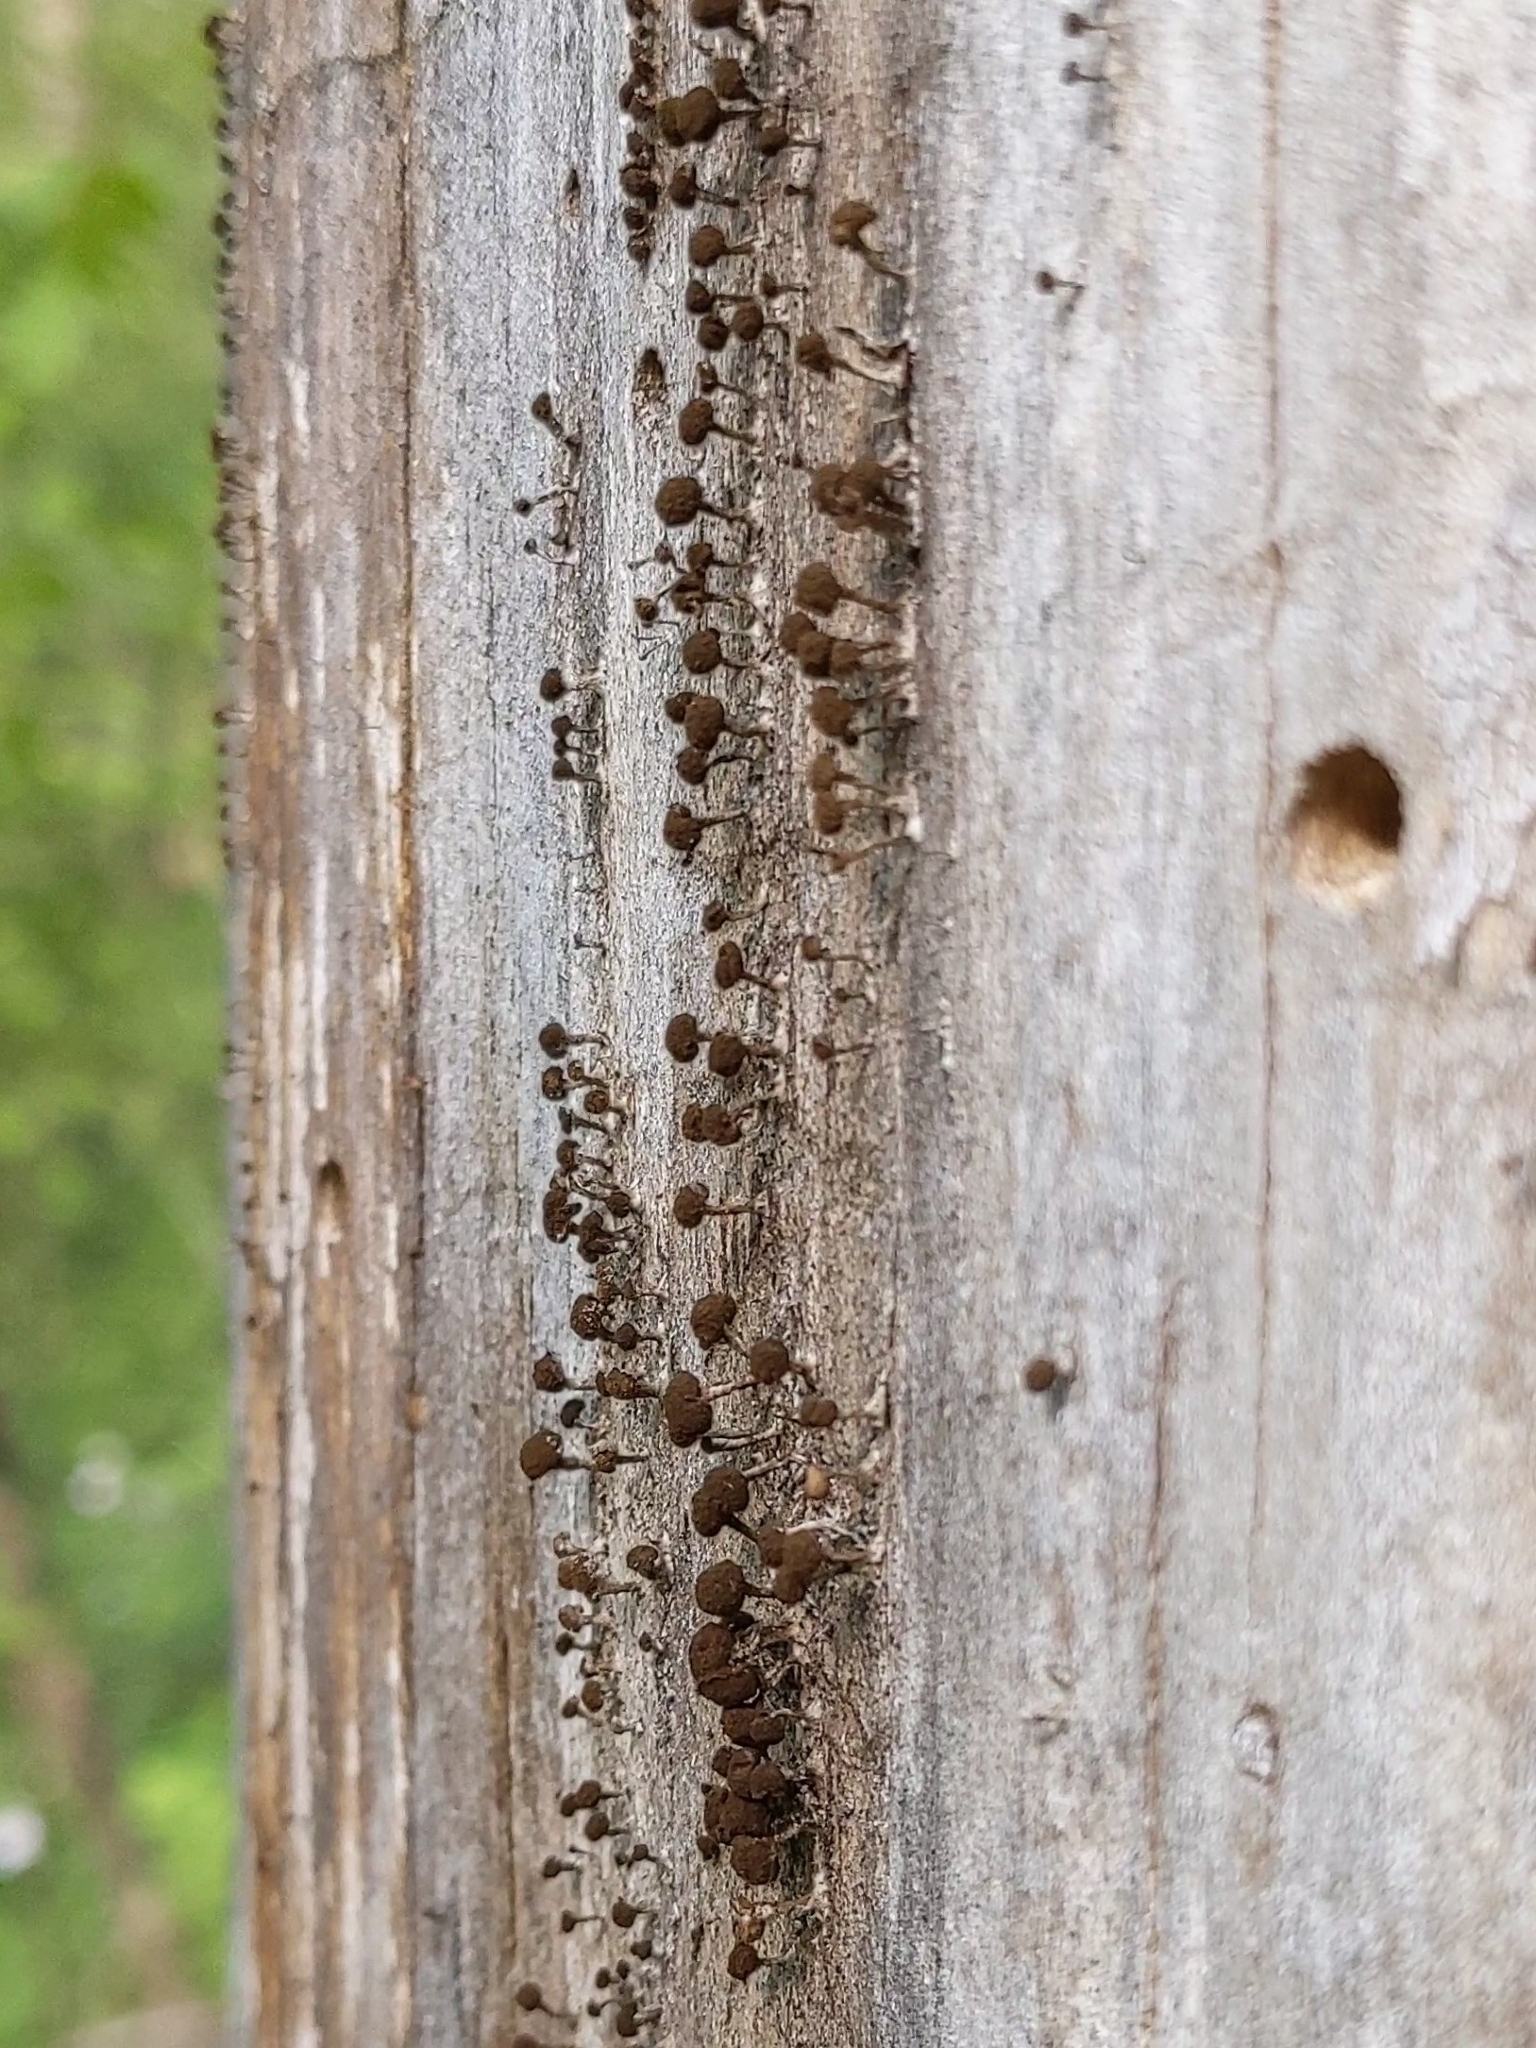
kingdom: Fungi
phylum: Basidiomycota
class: Atractiellomycetes
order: Atractiellales
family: Phleogenaceae
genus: Phleogena
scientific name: Phleogena faginea
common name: Fenugreek stalkball
